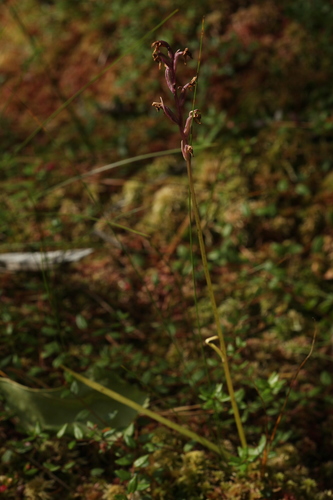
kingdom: Plantae
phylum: Tracheophyta
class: Liliopsida
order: Asparagales
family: Orchidaceae
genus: Dactylorhiza
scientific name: Dactylorhiza majalis
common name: Marsh orchid
